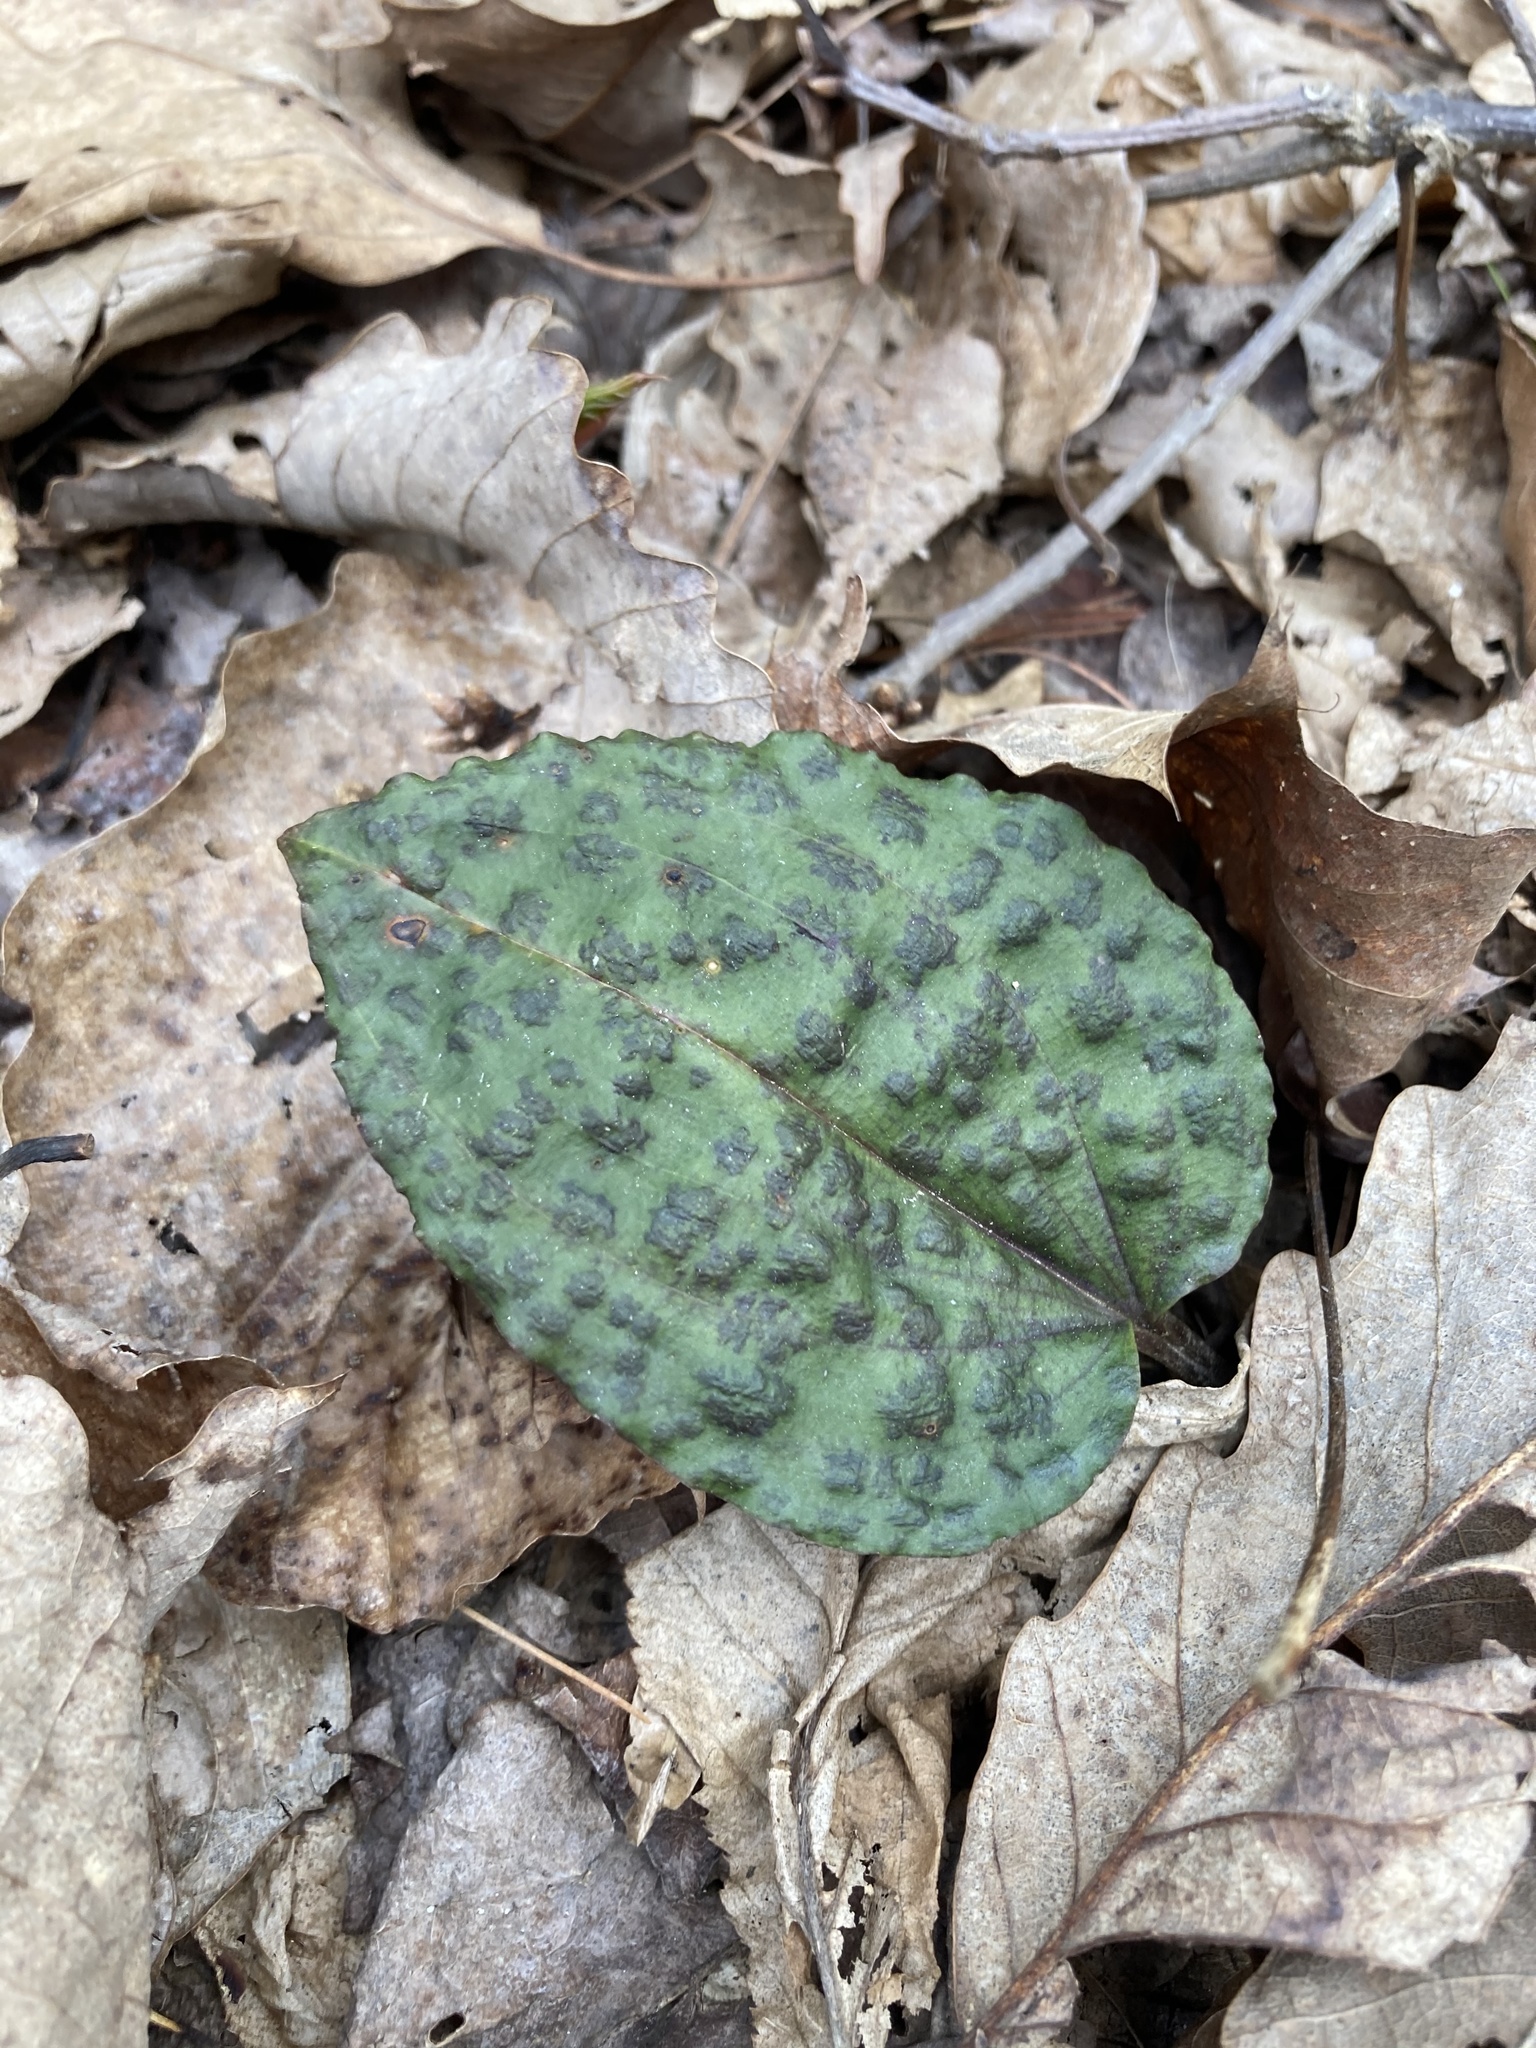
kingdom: Plantae
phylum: Tracheophyta
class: Liliopsida
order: Asparagales
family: Orchidaceae
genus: Tipularia
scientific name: Tipularia discolor
